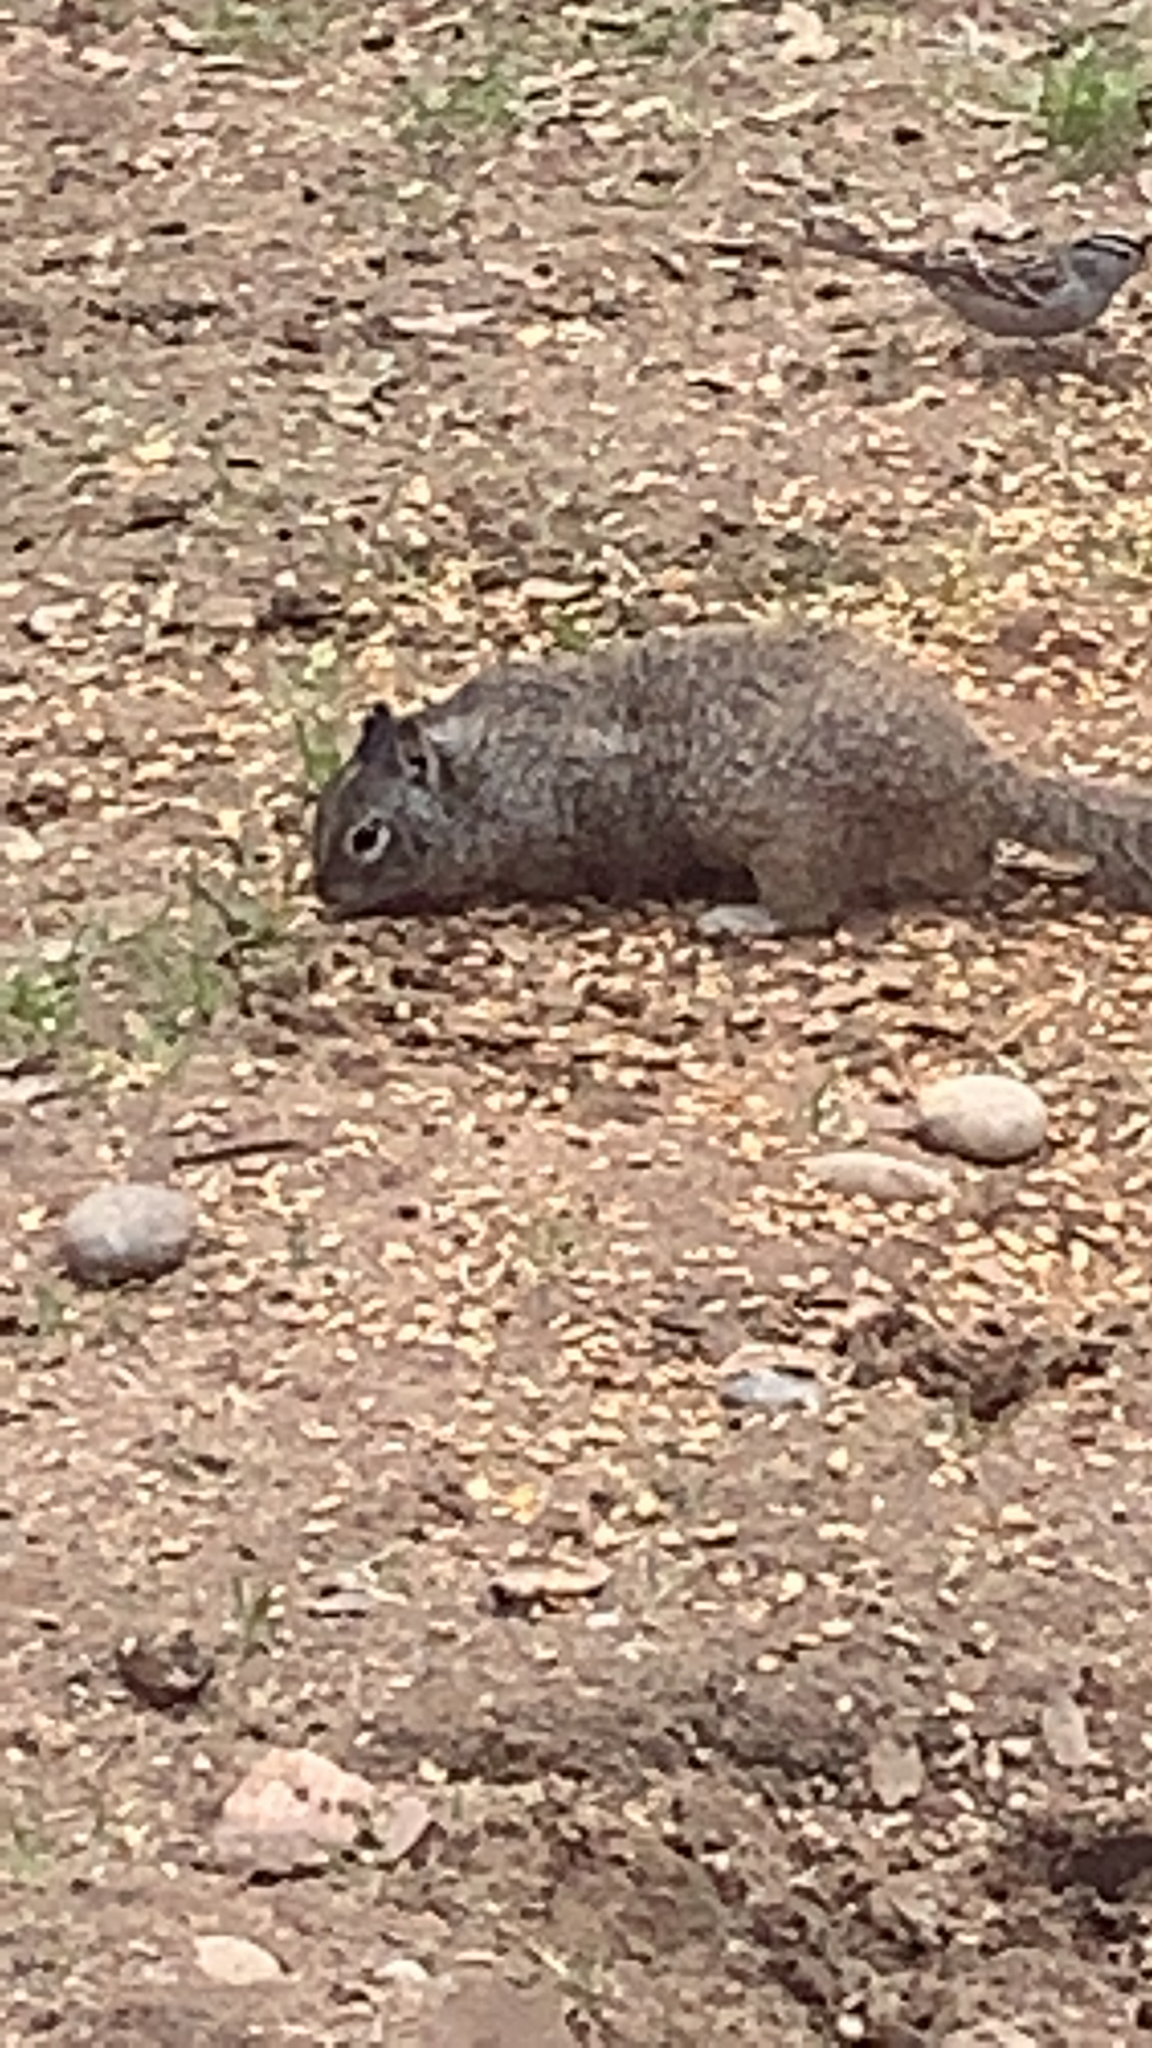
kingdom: Animalia
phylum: Chordata
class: Mammalia
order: Rodentia
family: Sciuridae
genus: Otospermophilus
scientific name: Otospermophilus beecheyi
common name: California ground squirrel
